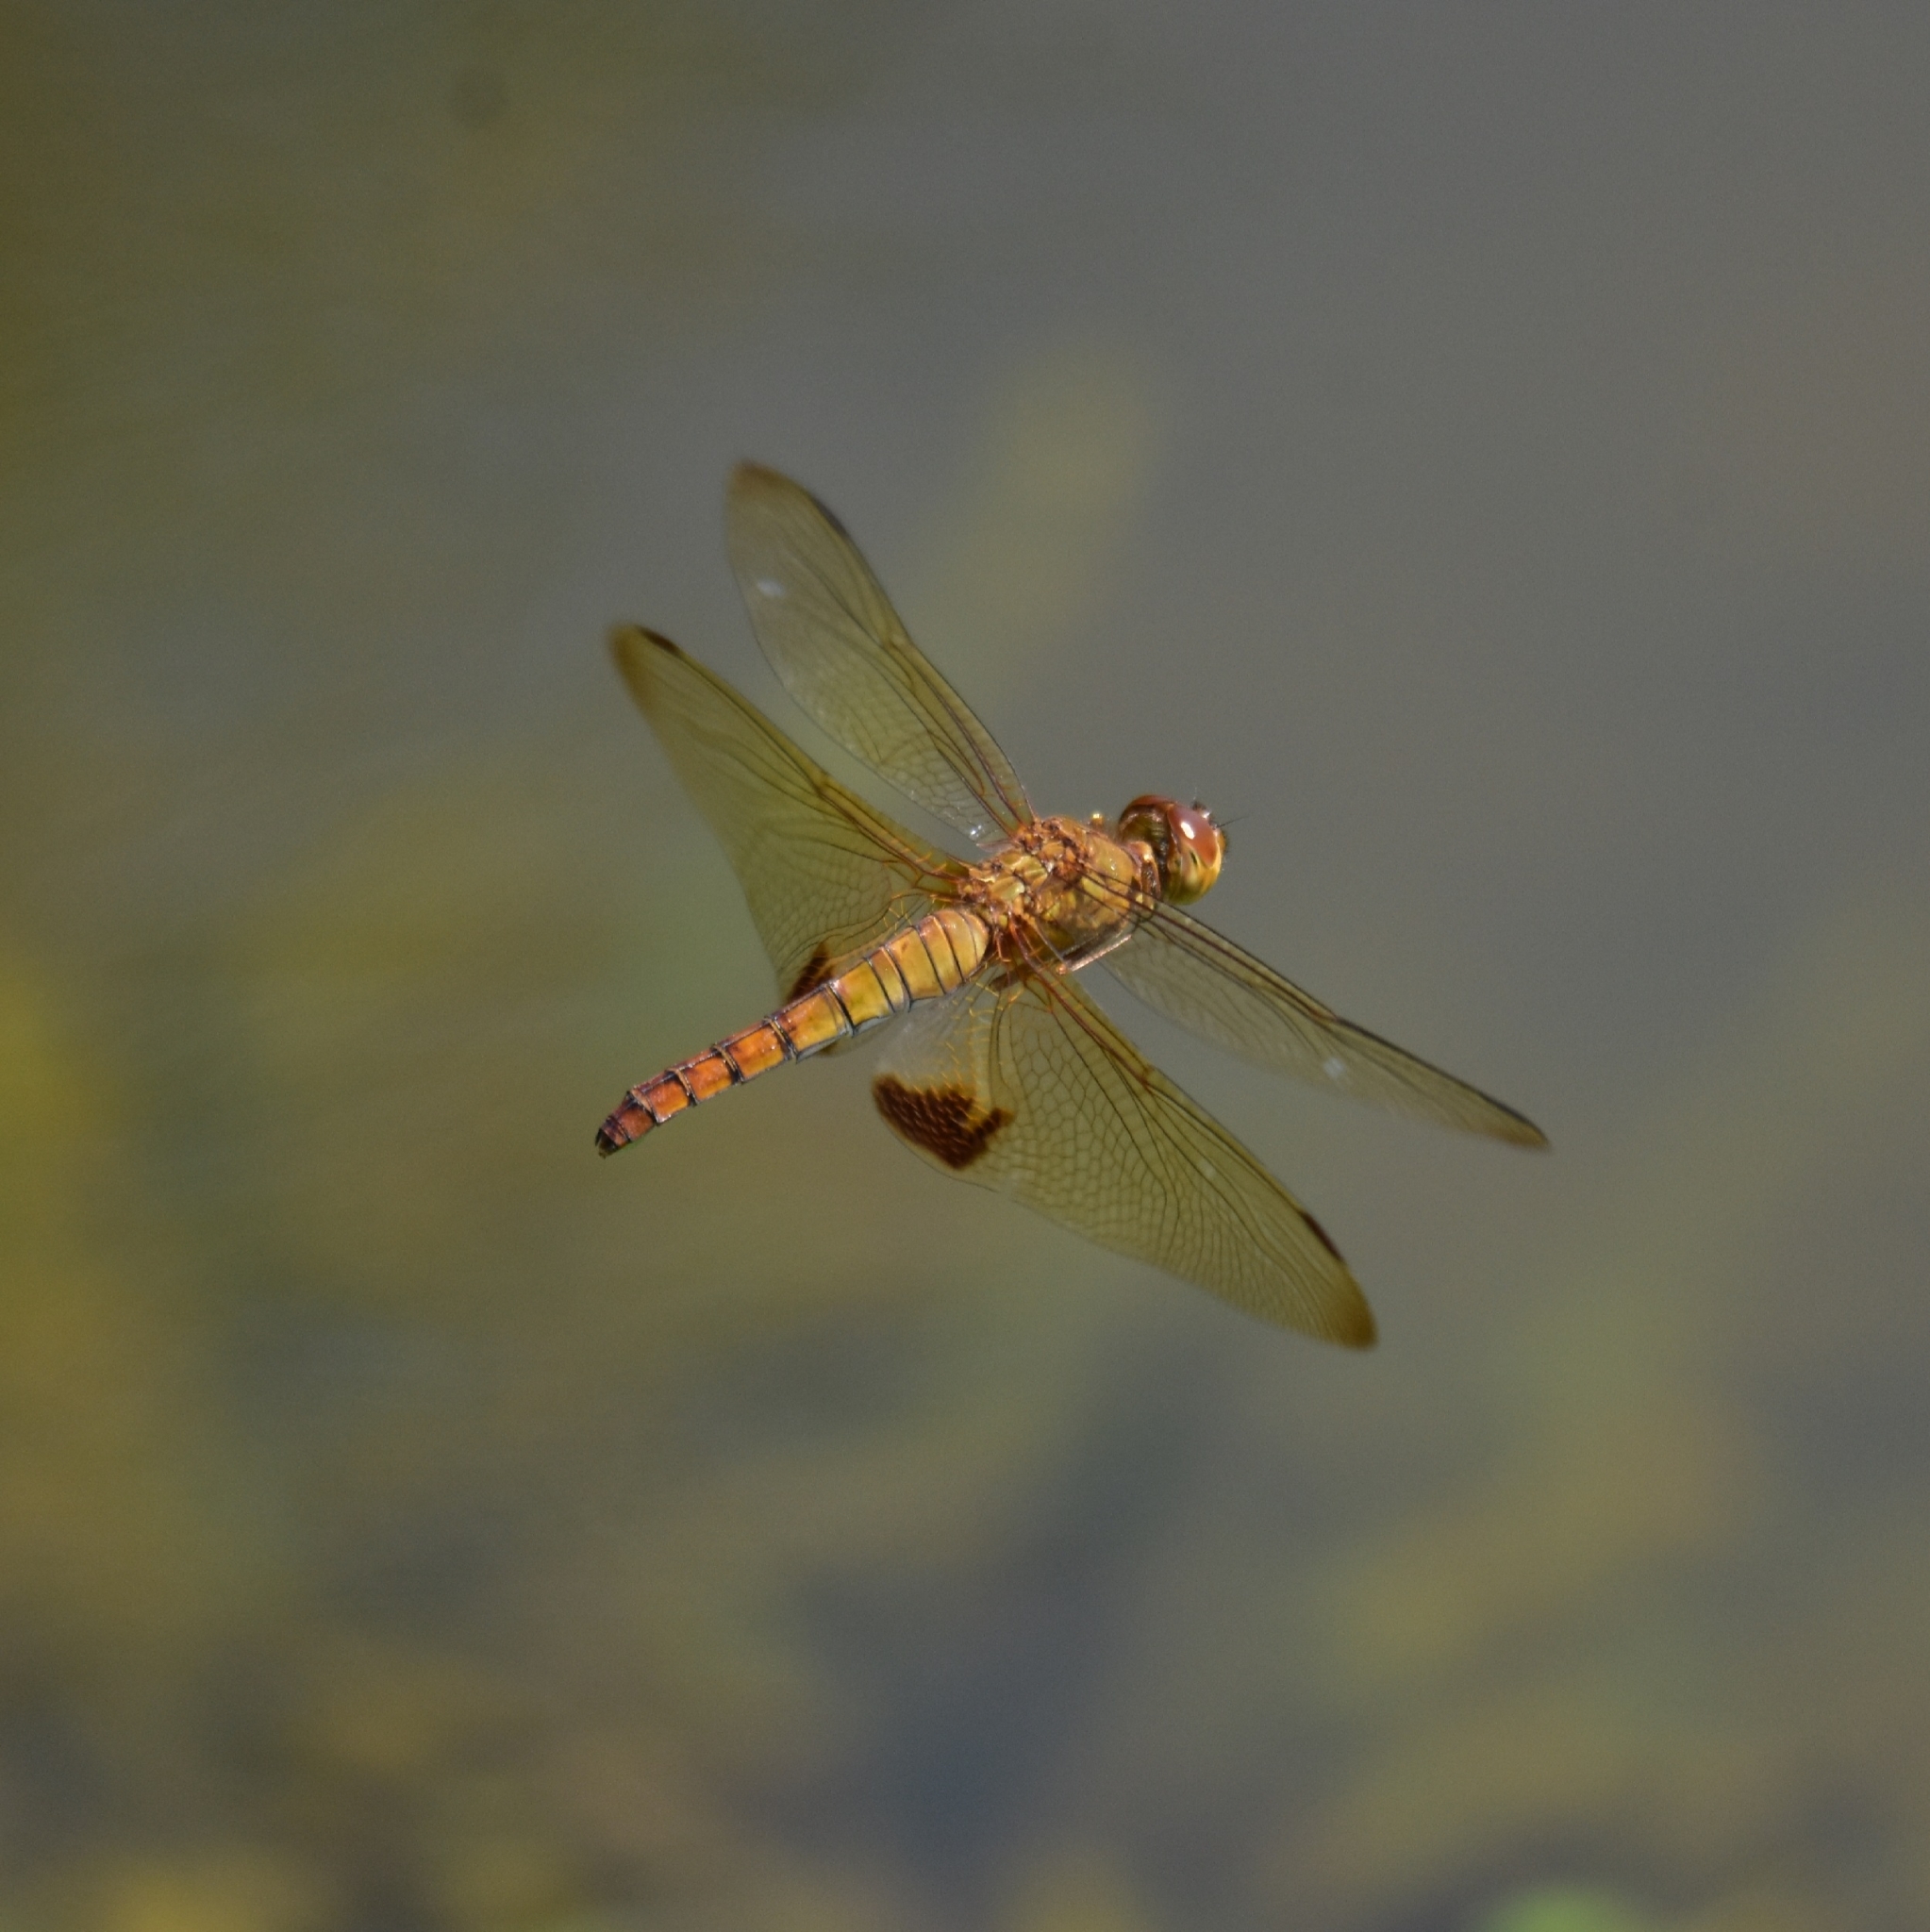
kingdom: Animalia
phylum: Arthropoda
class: Insecta
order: Odonata
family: Libellulidae
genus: Hydrobasileus
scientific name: Hydrobasileus croceus
